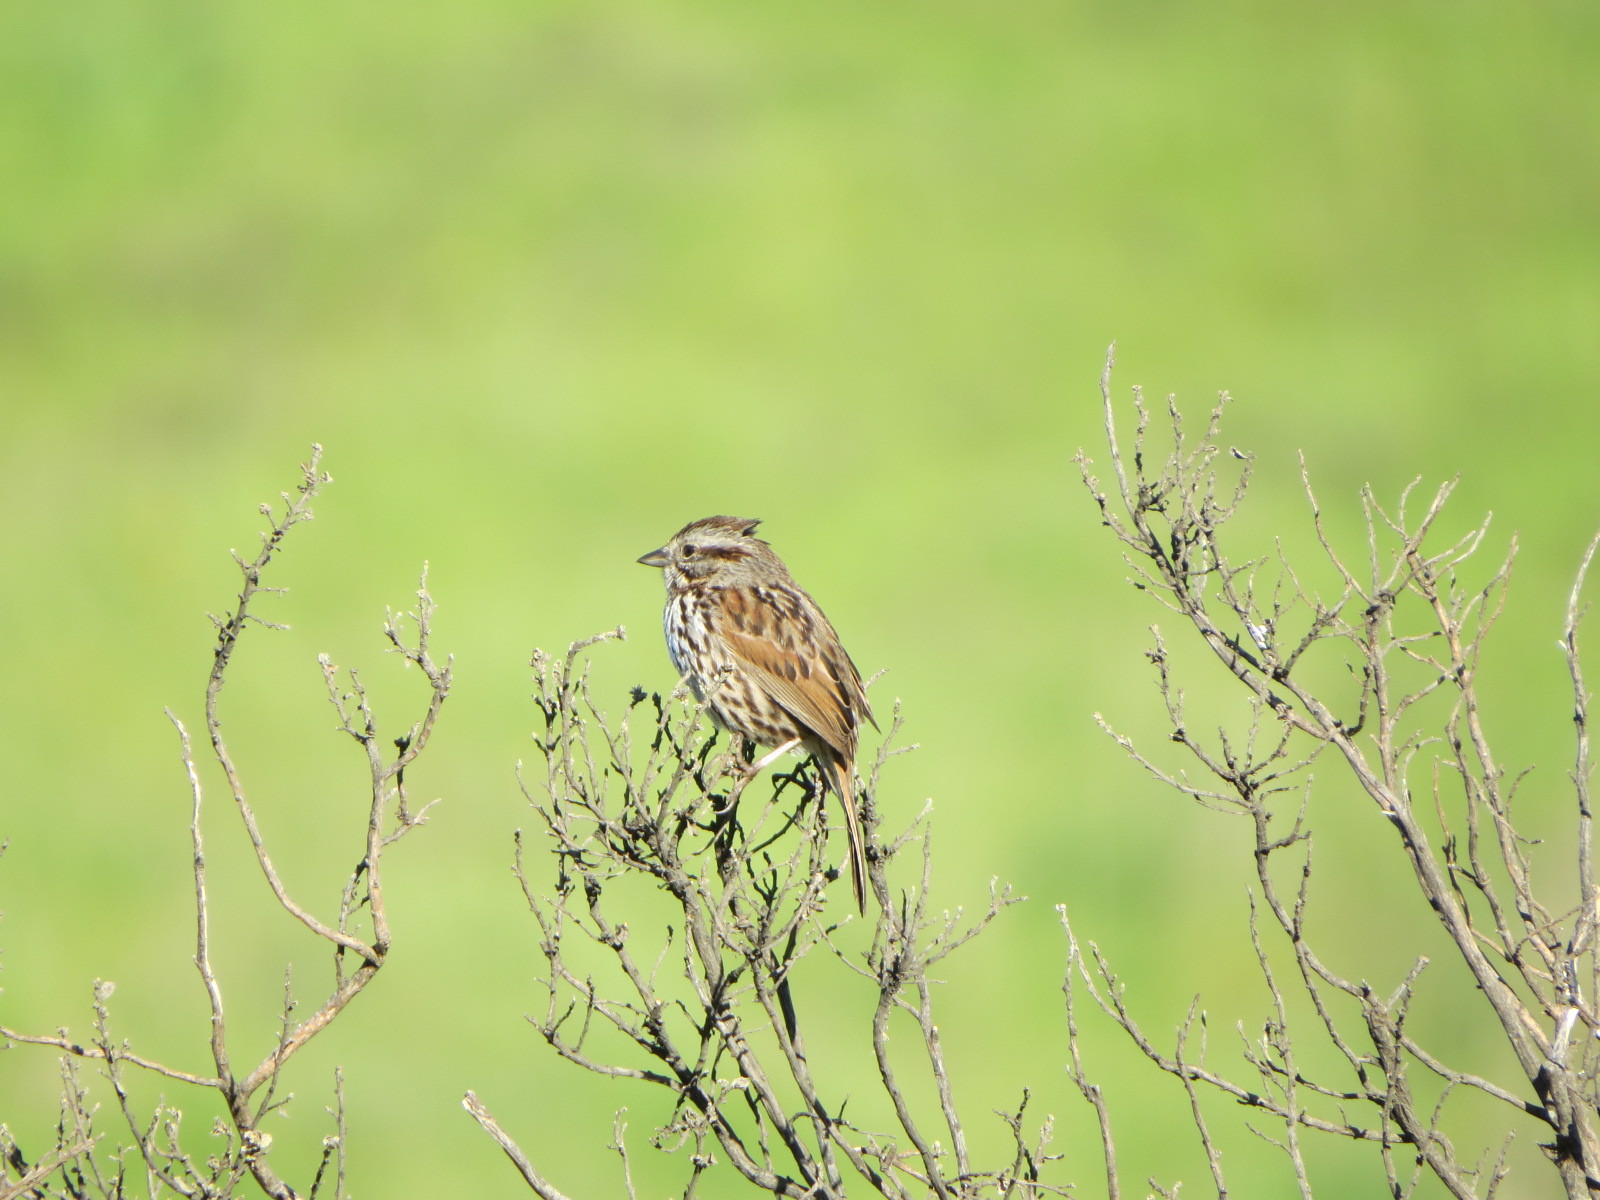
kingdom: Animalia
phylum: Chordata
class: Aves
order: Passeriformes
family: Passerellidae
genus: Melospiza
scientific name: Melospiza melodia
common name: Song sparrow
